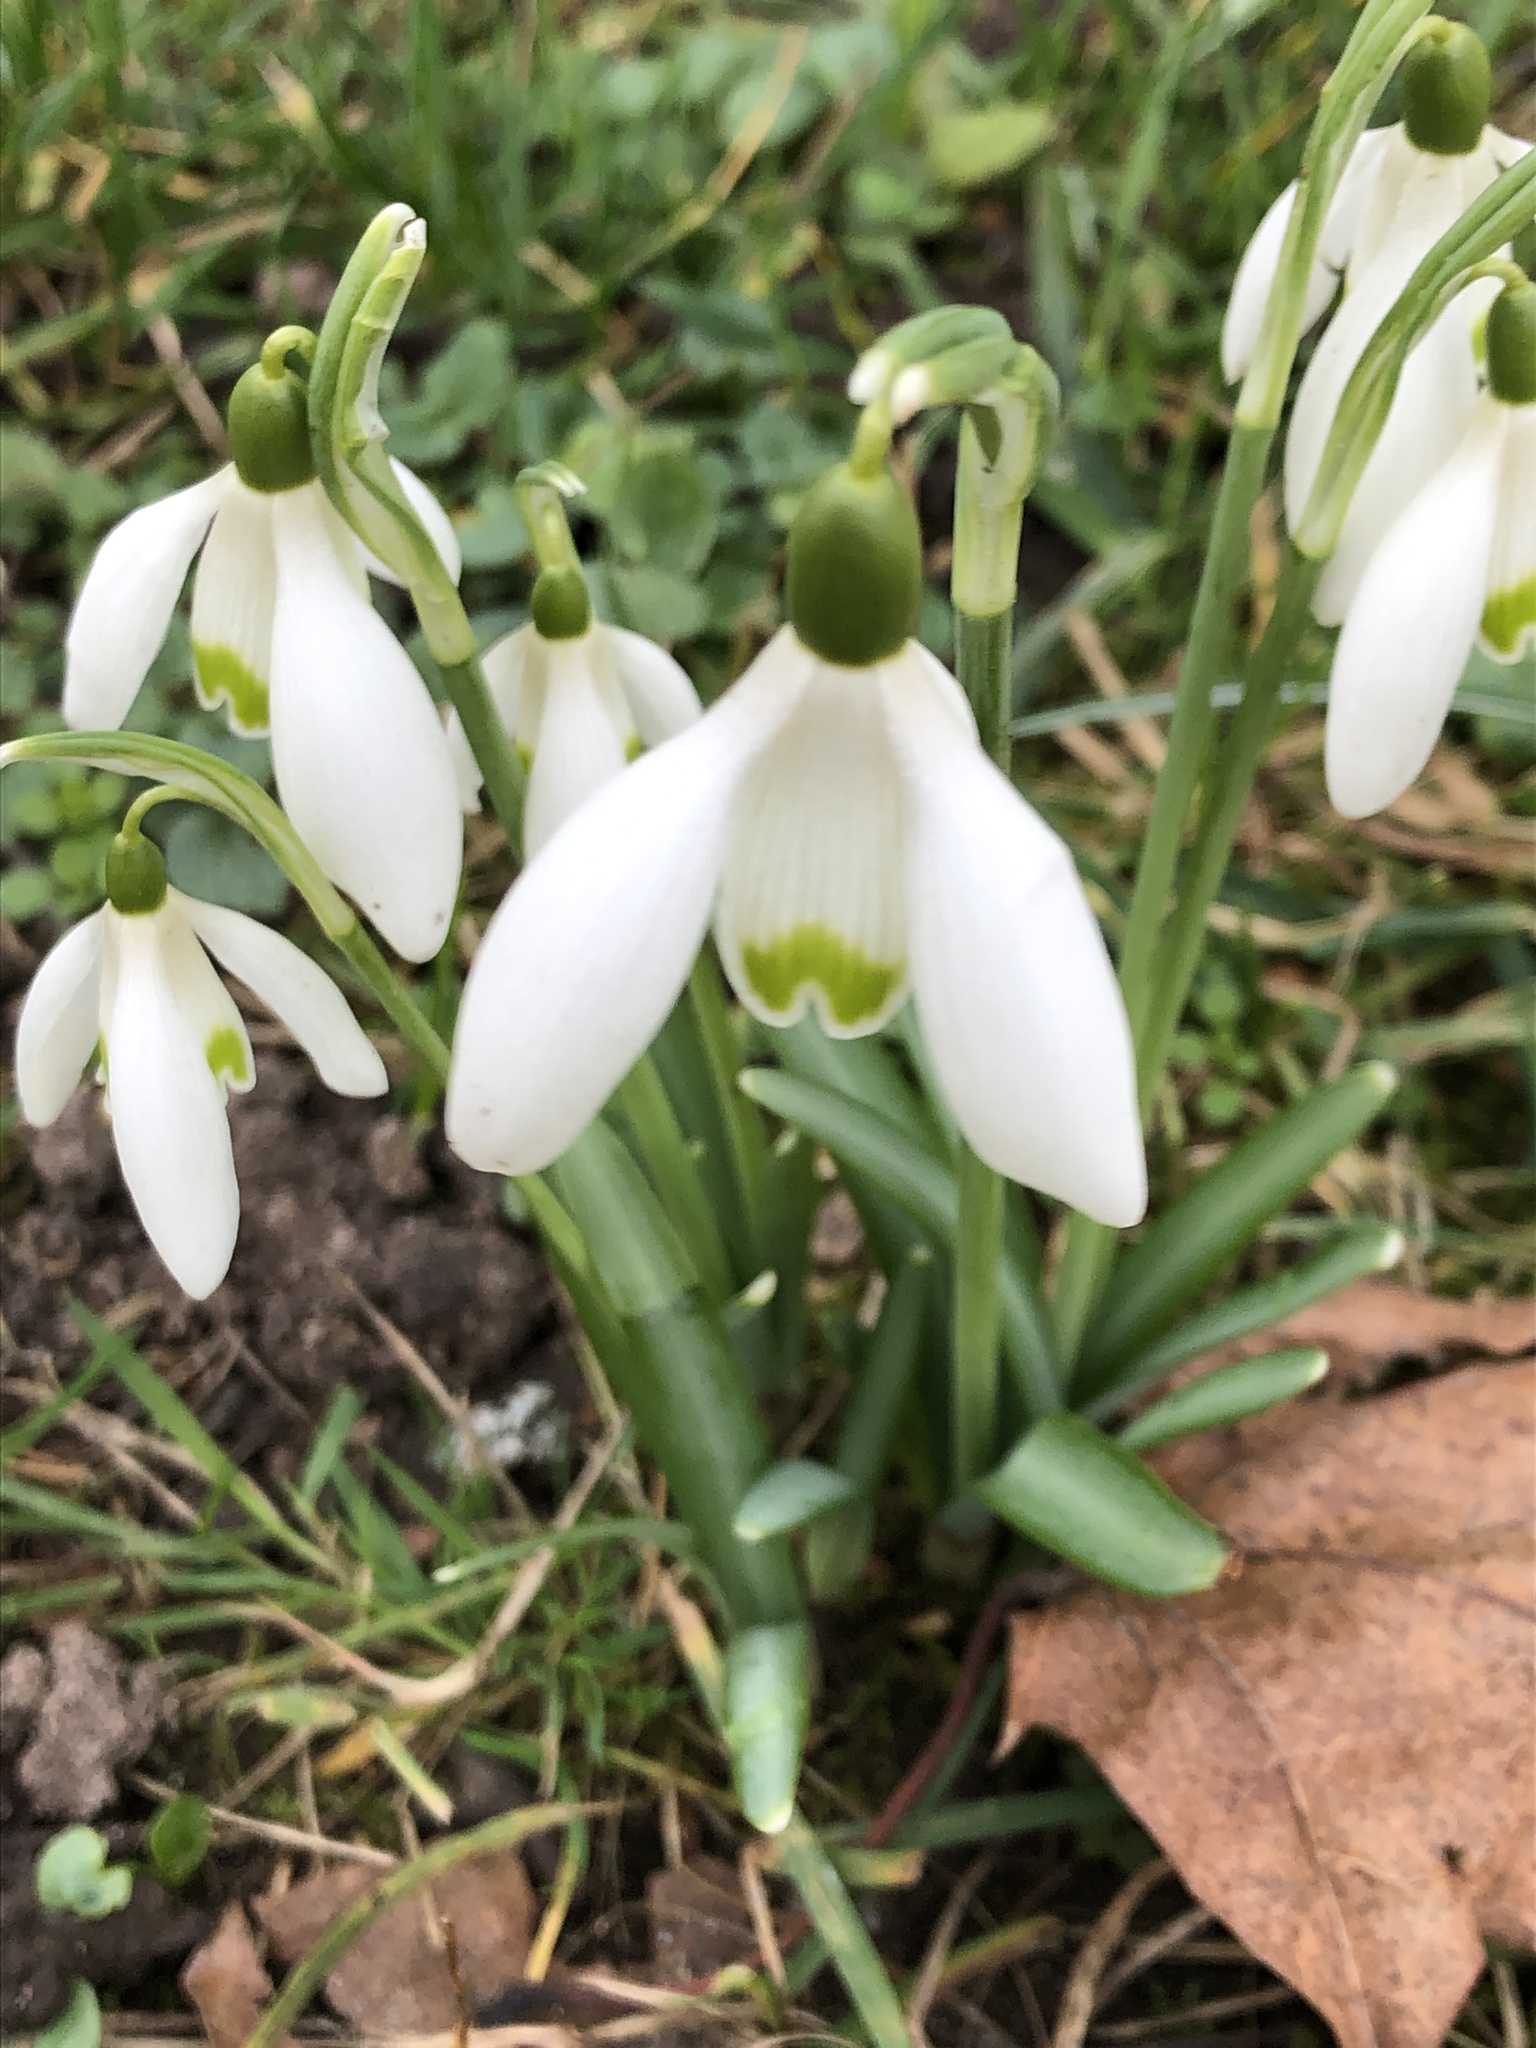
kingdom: Plantae
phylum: Tracheophyta
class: Liliopsida
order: Asparagales
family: Amaryllidaceae
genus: Galanthus
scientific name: Galanthus nivalis
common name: Snowdrop
